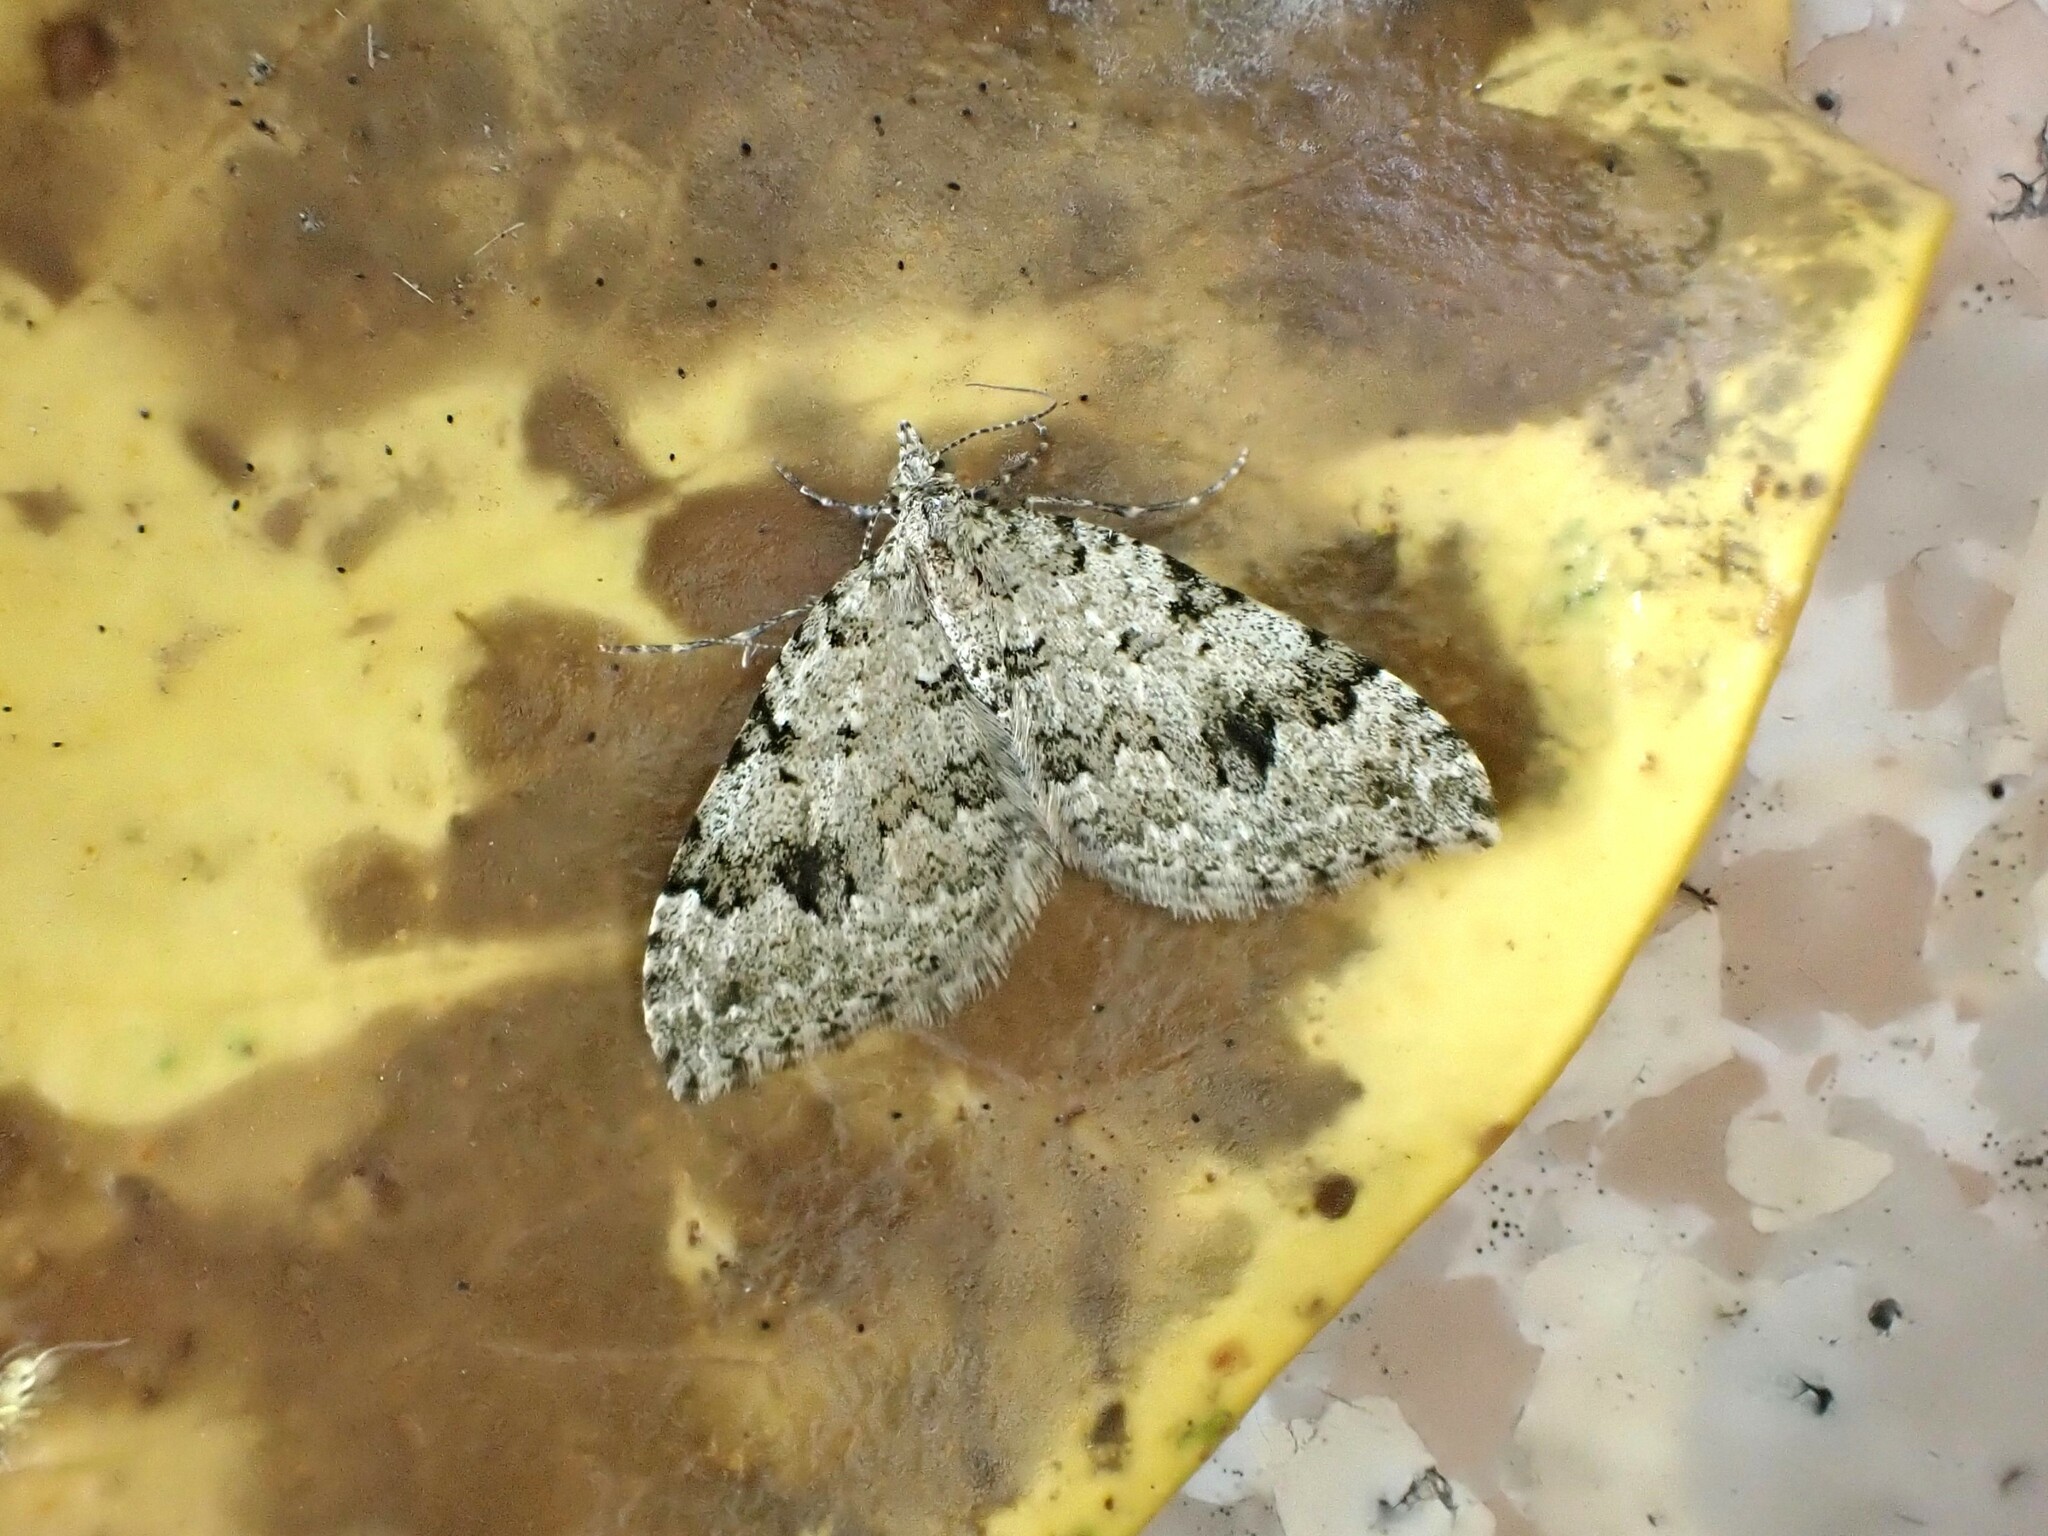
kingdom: Animalia
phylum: Arthropoda
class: Insecta
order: Lepidoptera
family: Geometridae
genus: Helastia
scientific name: Helastia cinerearia
